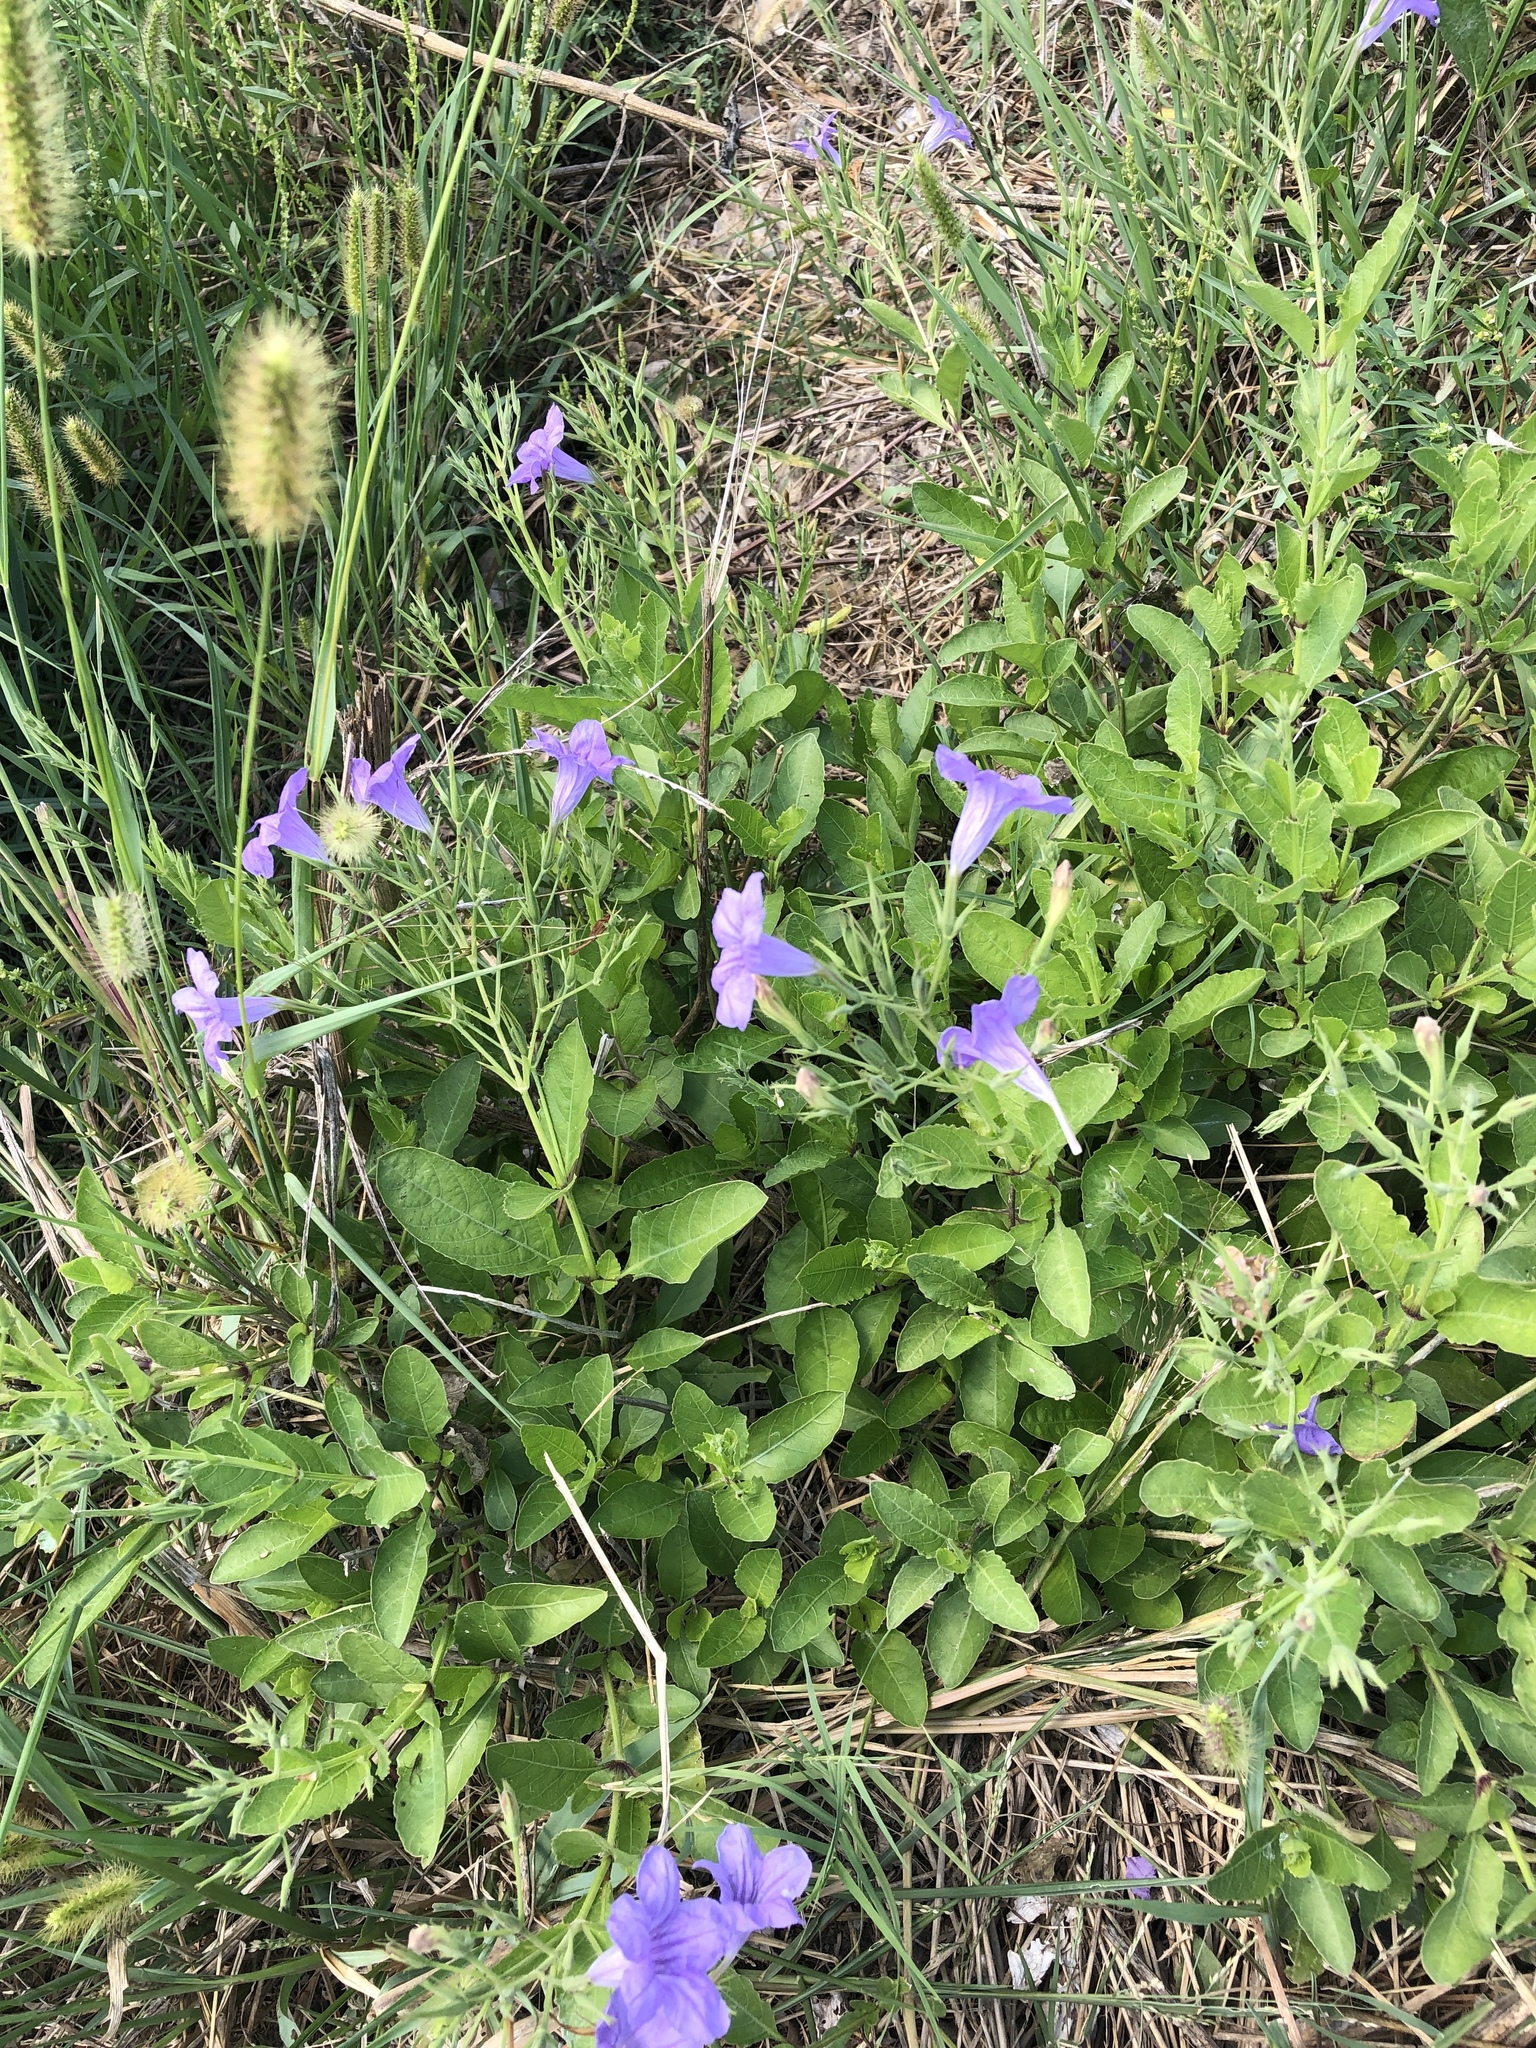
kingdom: Plantae
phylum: Tracheophyta
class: Magnoliopsida
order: Lamiales
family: Acanthaceae
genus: Ruellia
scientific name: Ruellia ciliatiflora
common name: Hairyflower wild petunia
